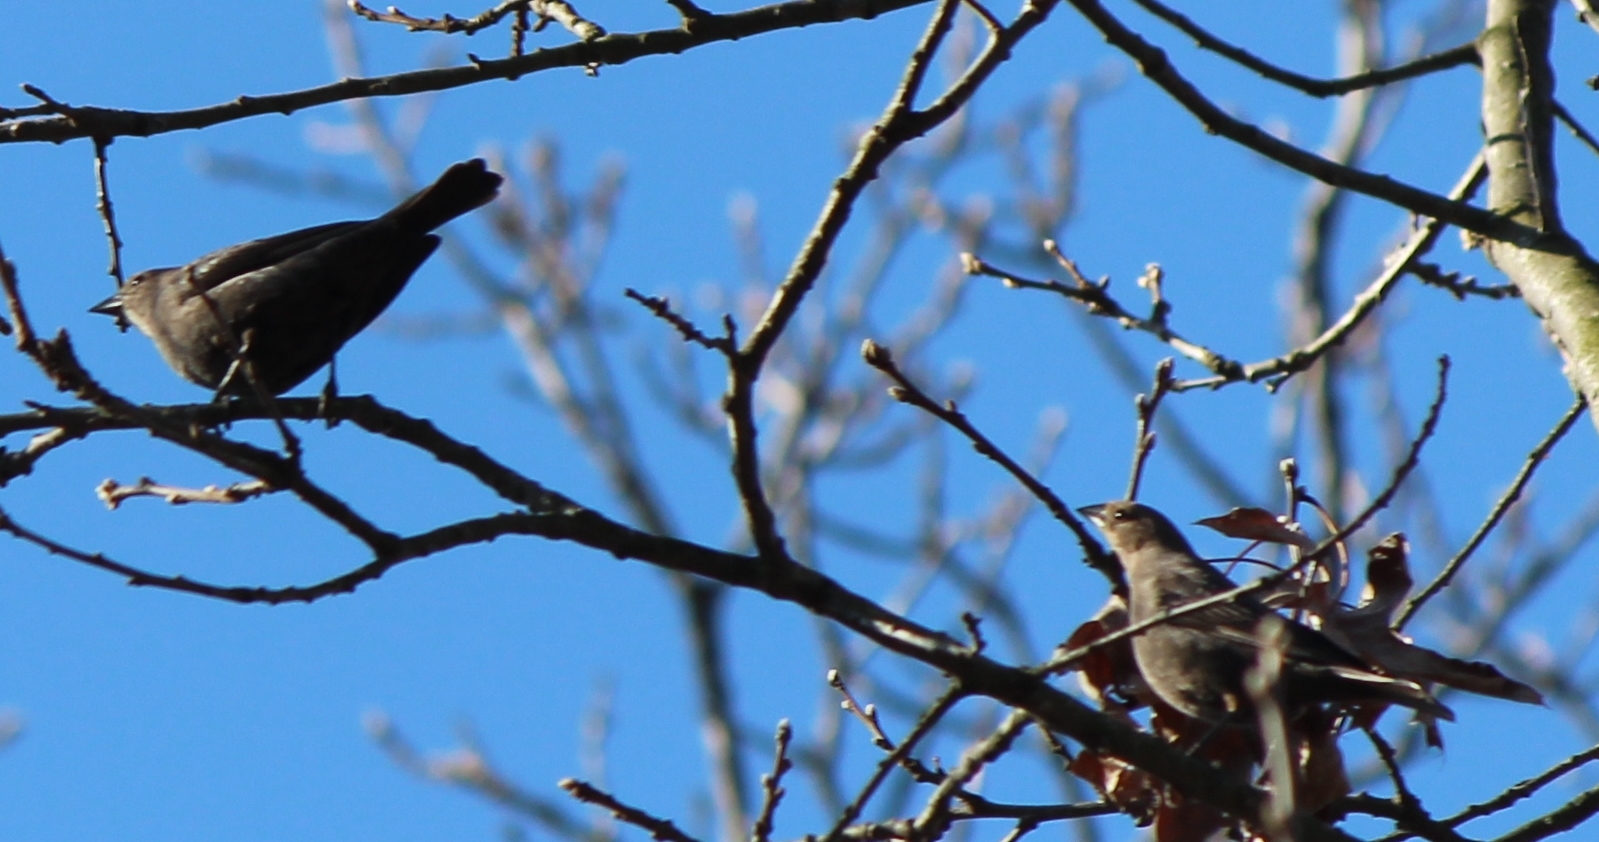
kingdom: Animalia
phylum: Chordata
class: Aves
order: Passeriformes
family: Icteridae
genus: Molothrus
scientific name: Molothrus ater
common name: Brown-headed cowbird
